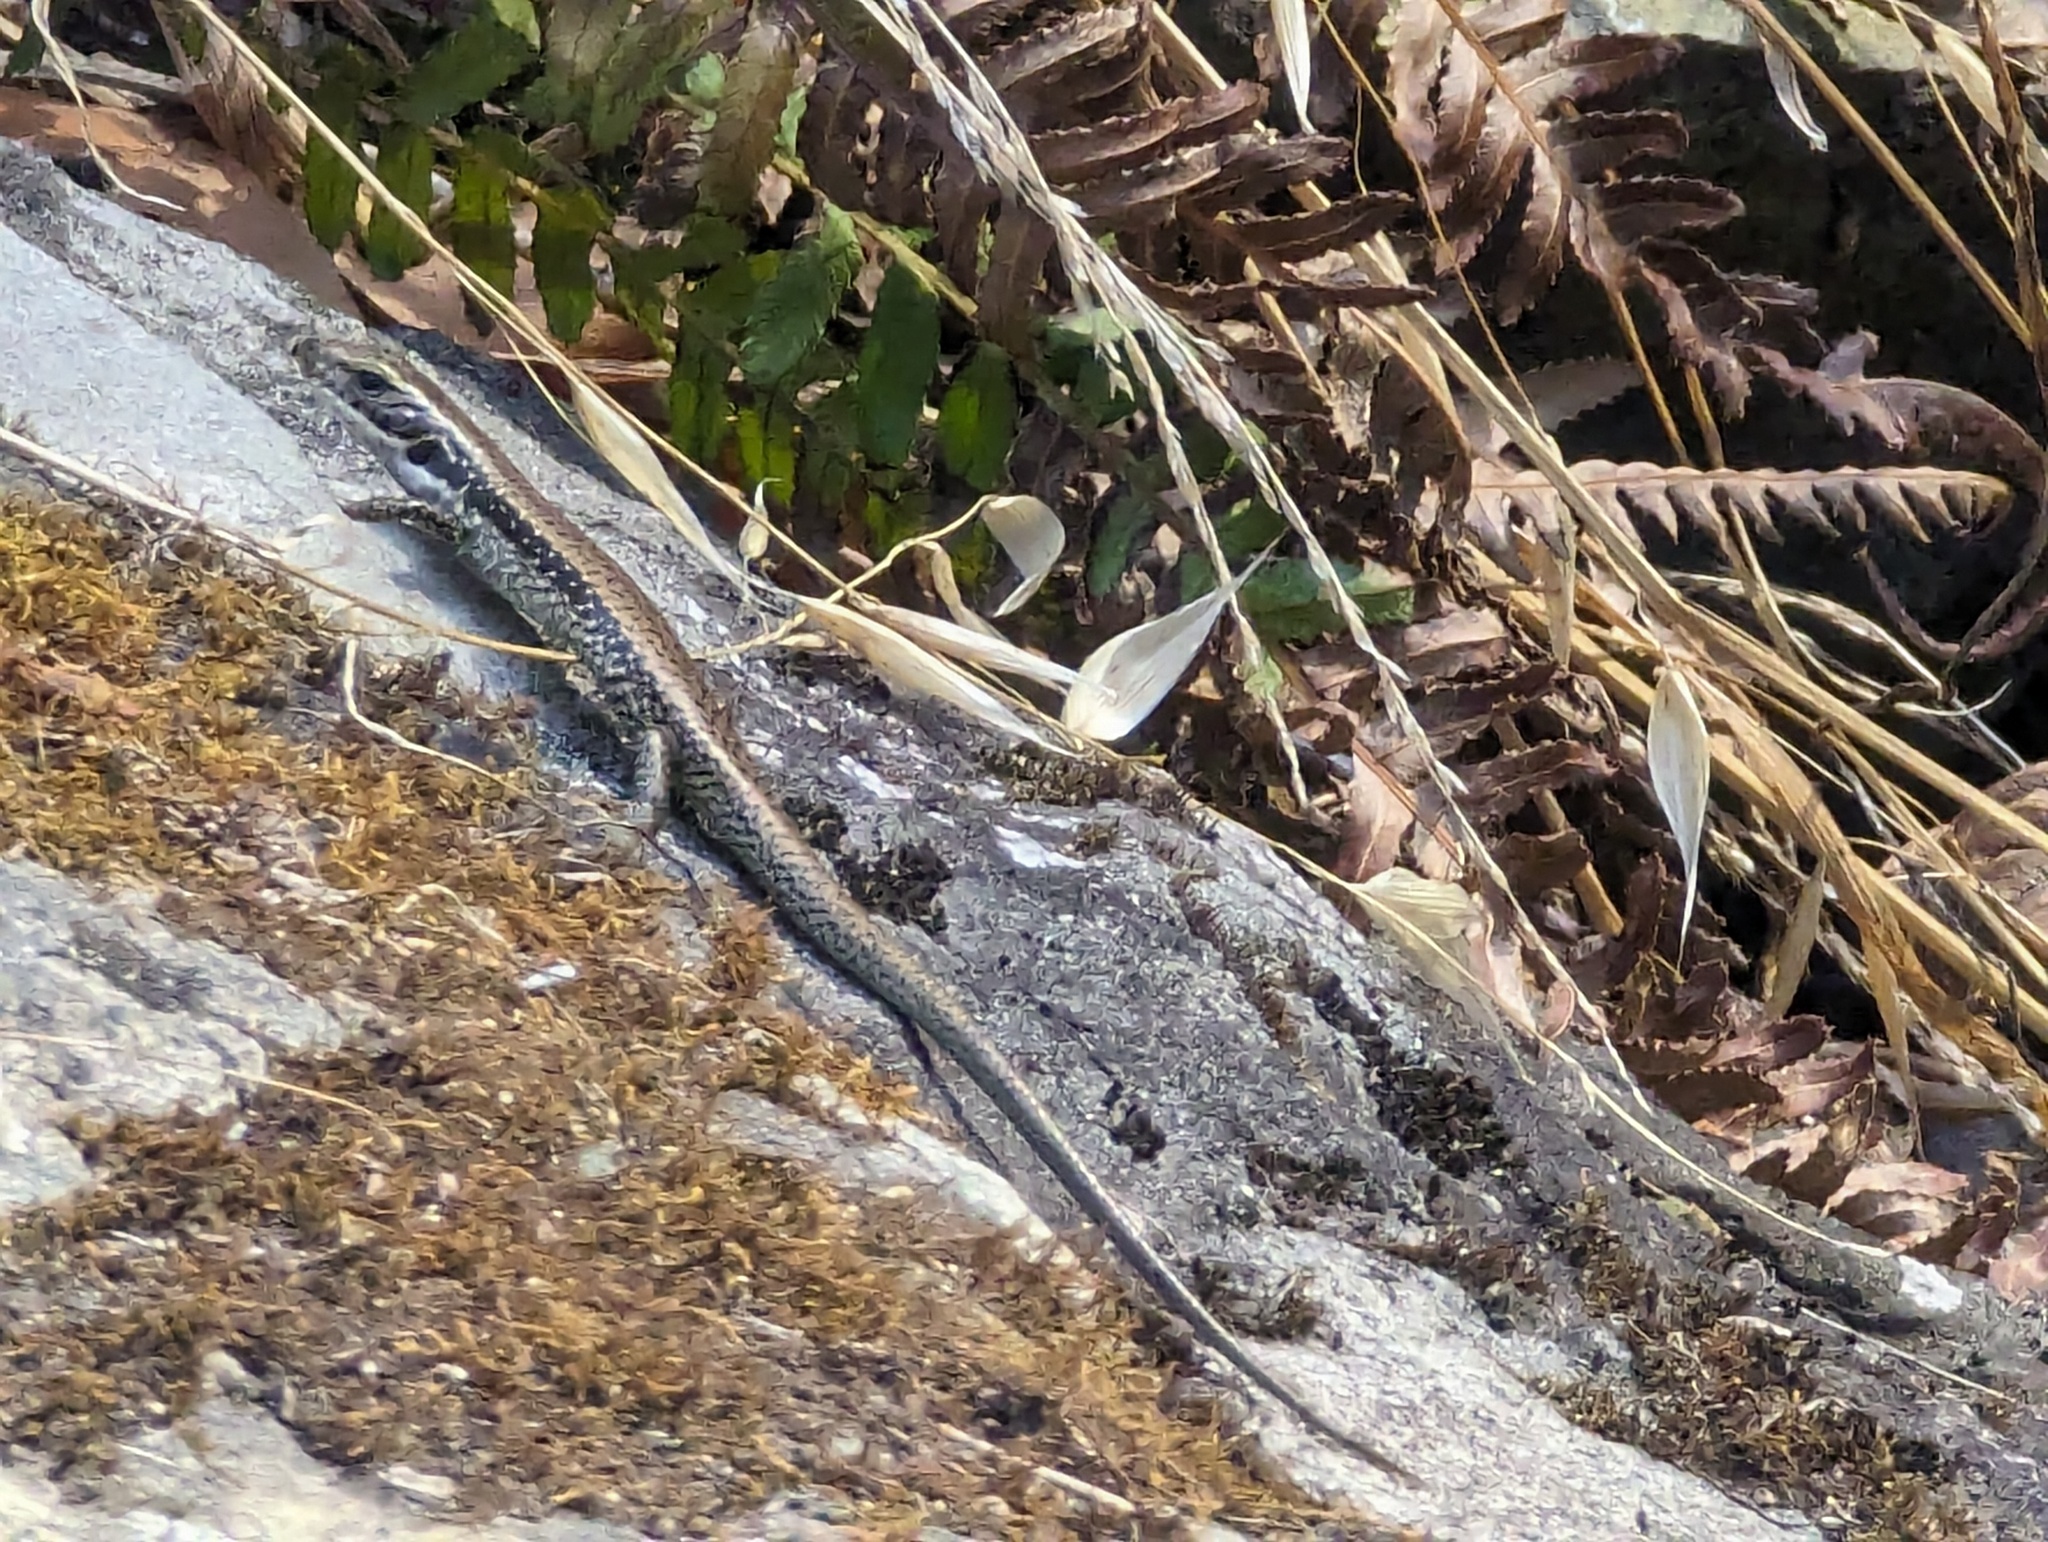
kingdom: Animalia
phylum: Chordata
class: Squamata
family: Scincidae
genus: Eulamprus
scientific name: Eulamprus tympanum
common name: Cool-temperate water-skink
